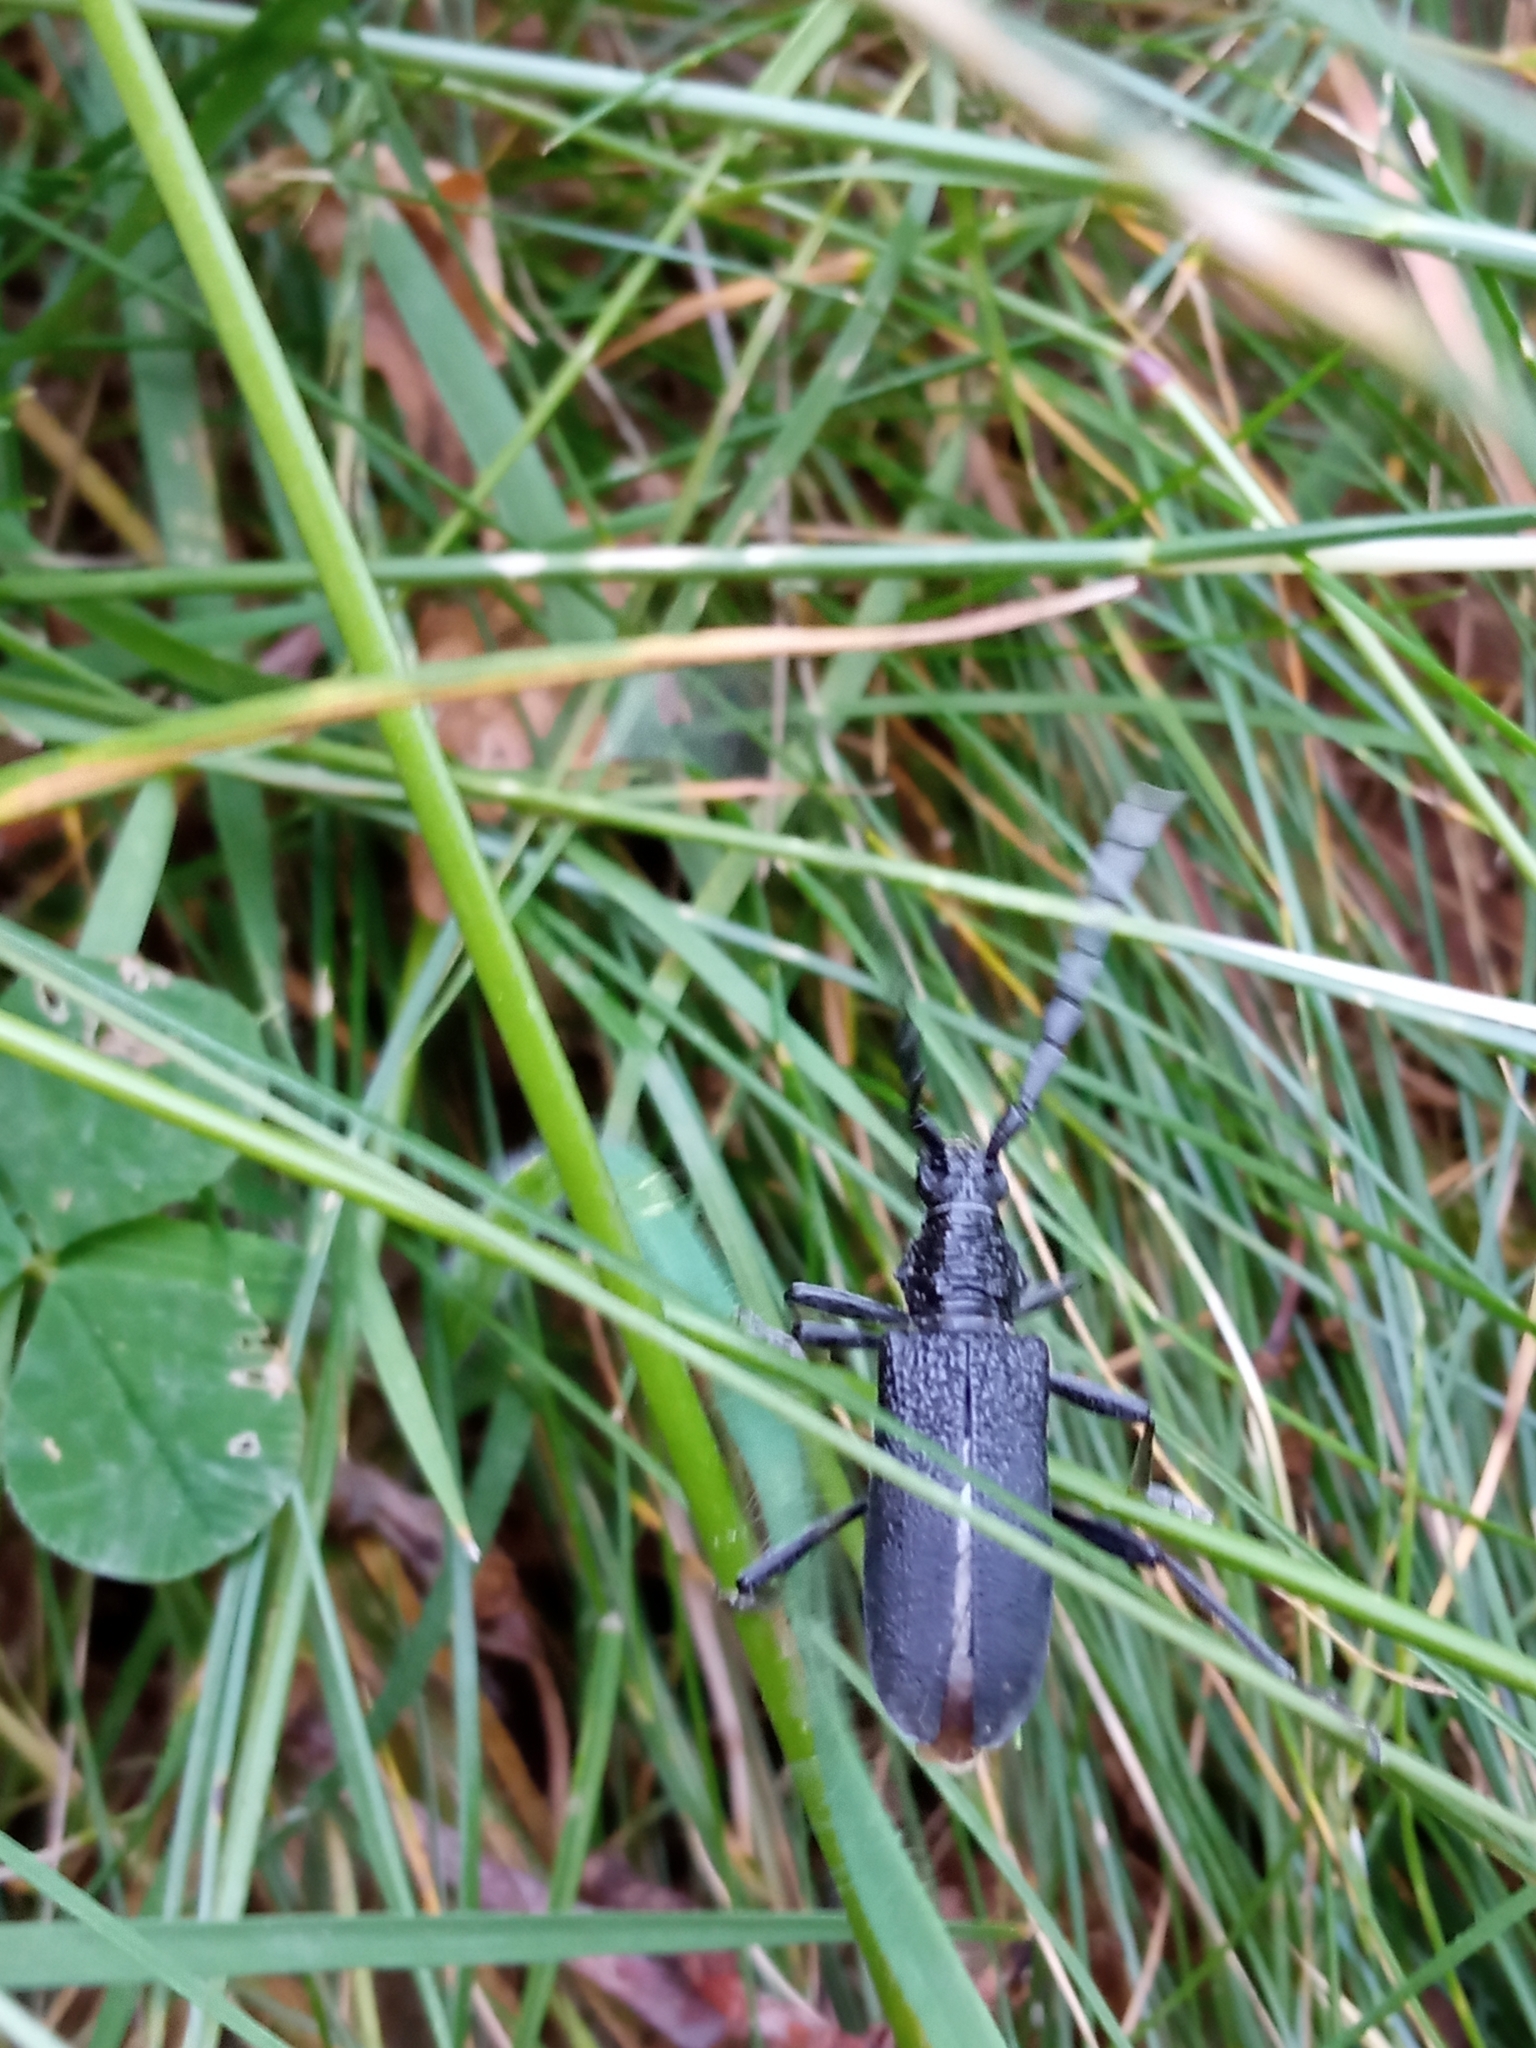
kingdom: Animalia
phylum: Arthropoda
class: Insecta
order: Coleoptera
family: Cerambycidae
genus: Cerambyx
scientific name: Cerambyx scopolii
